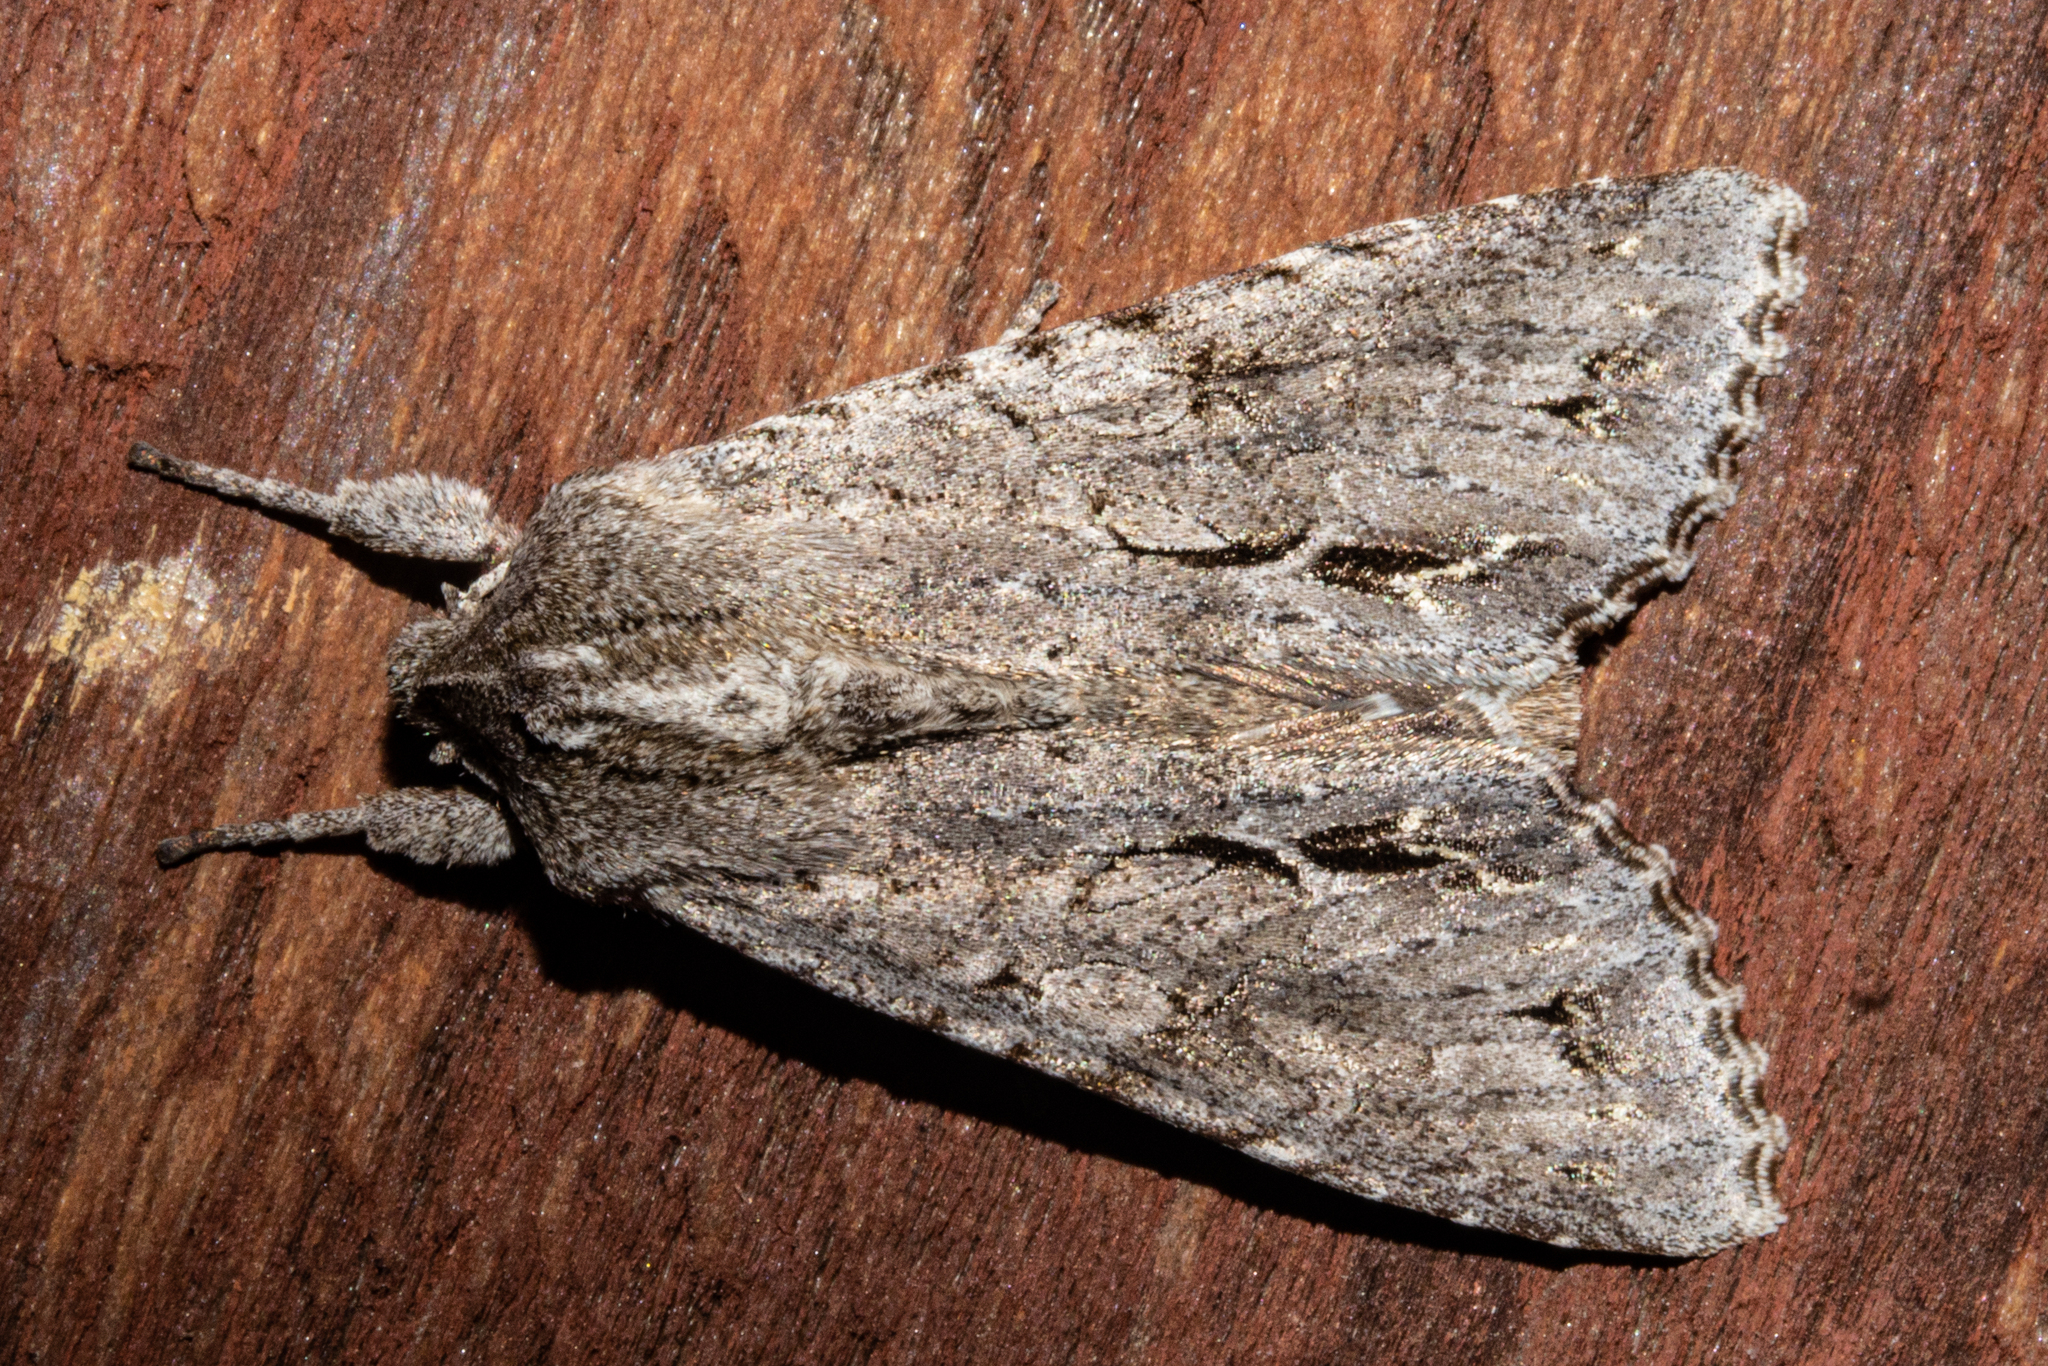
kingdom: Animalia
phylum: Arthropoda
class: Insecta
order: Lepidoptera
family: Noctuidae
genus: Ichneutica
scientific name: Ichneutica
